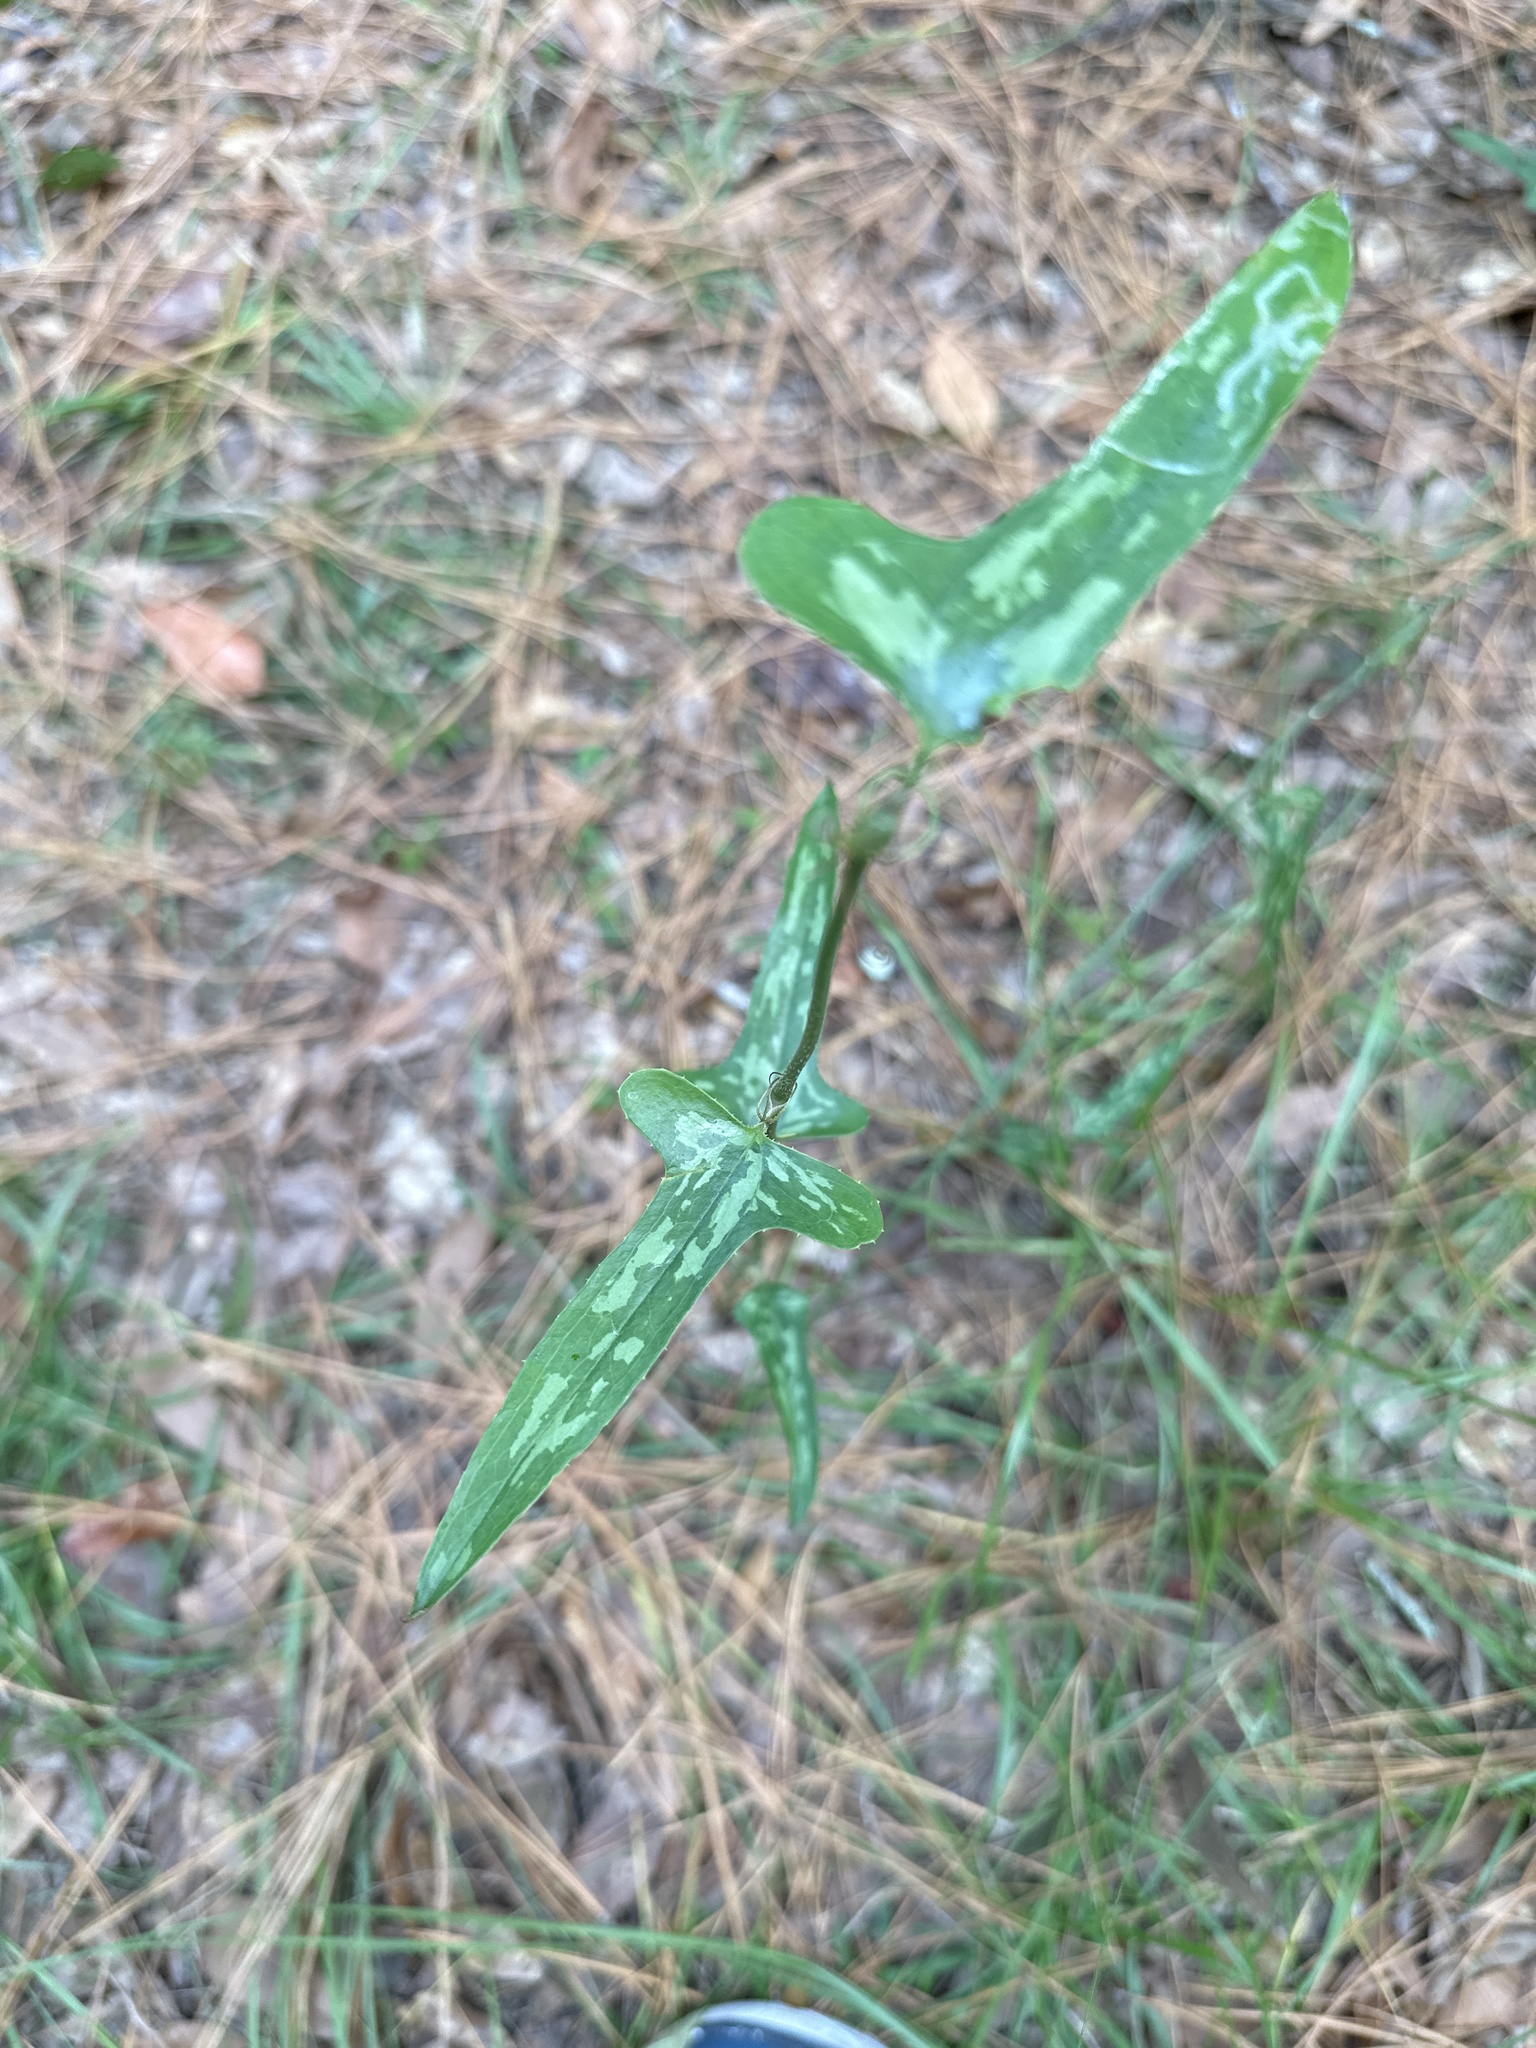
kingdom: Plantae
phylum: Tracheophyta
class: Liliopsida
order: Liliales
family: Smilacaceae
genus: Smilax
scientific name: Smilax bona-nox
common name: Catbrier
